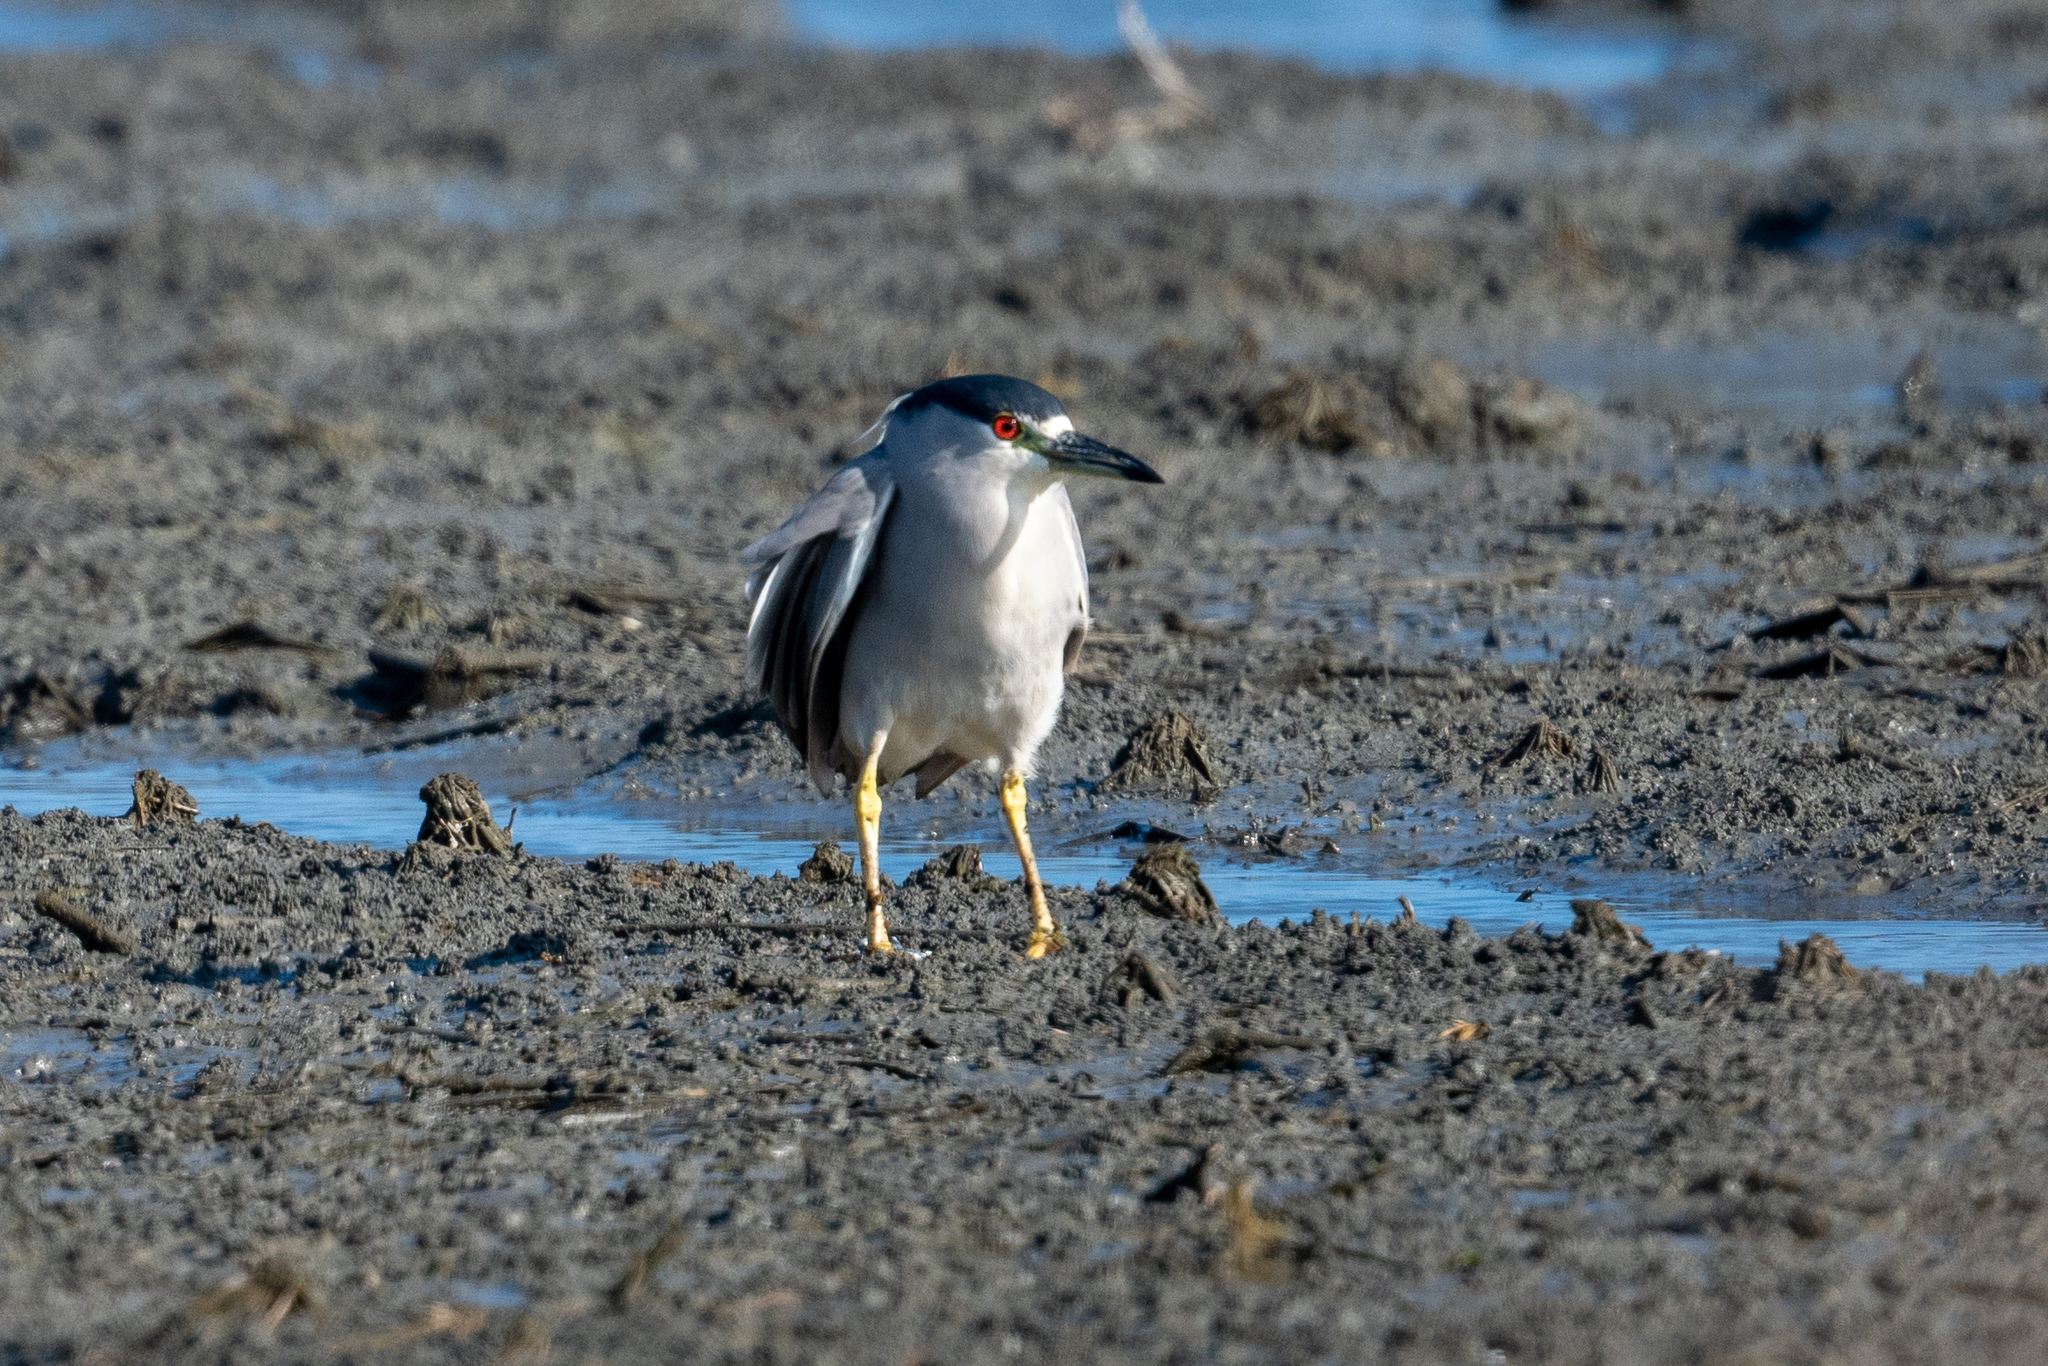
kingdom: Animalia
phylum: Chordata
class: Aves
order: Pelecaniformes
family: Ardeidae
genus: Nycticorax
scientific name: Nycticorax nycticorax
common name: Black-crowned night heron
